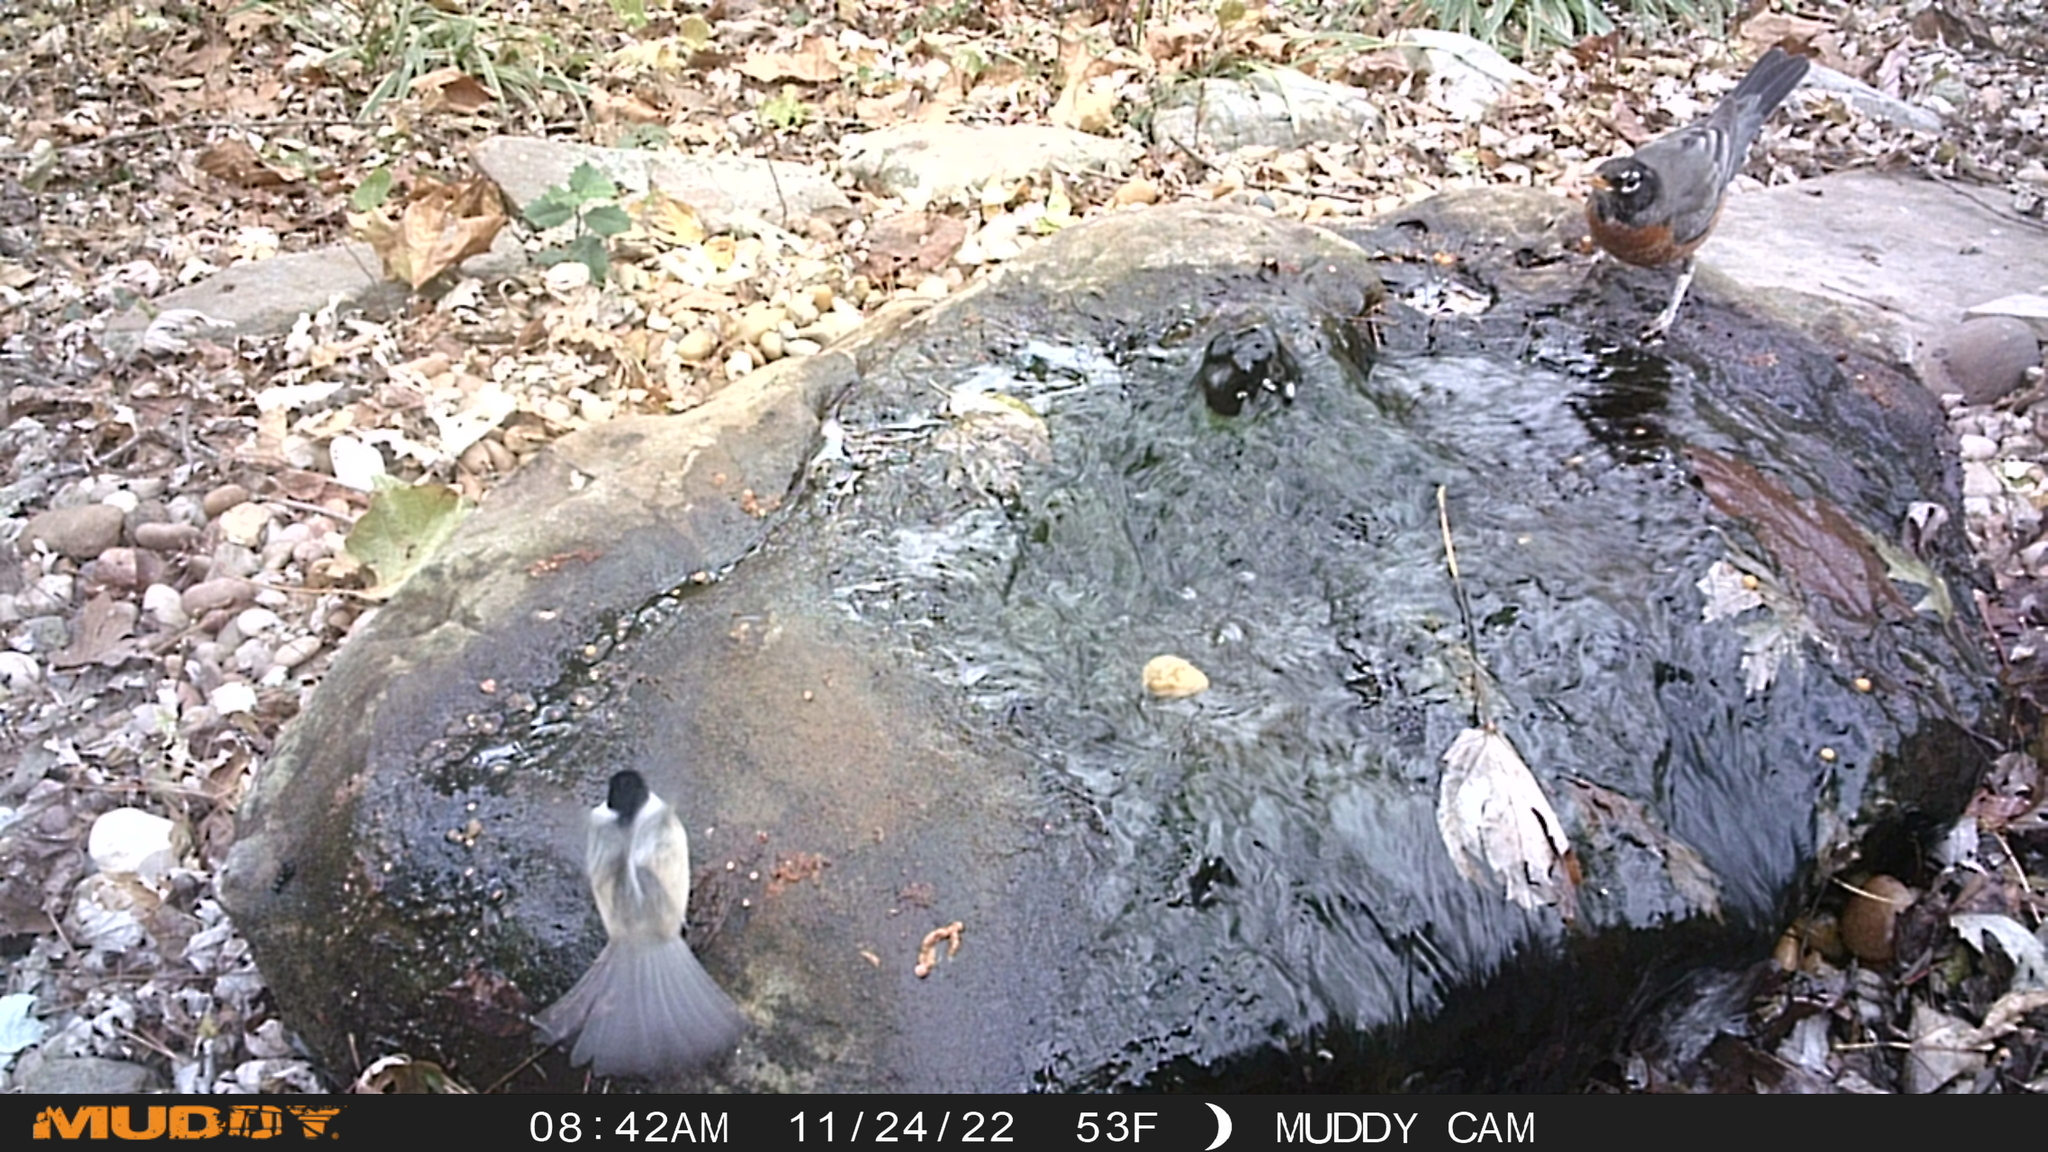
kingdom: Animalia
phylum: Chordata
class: Aves
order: Passeriformes
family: Turdidae
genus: Turdus
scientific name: Turdus migratorius
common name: American robin
